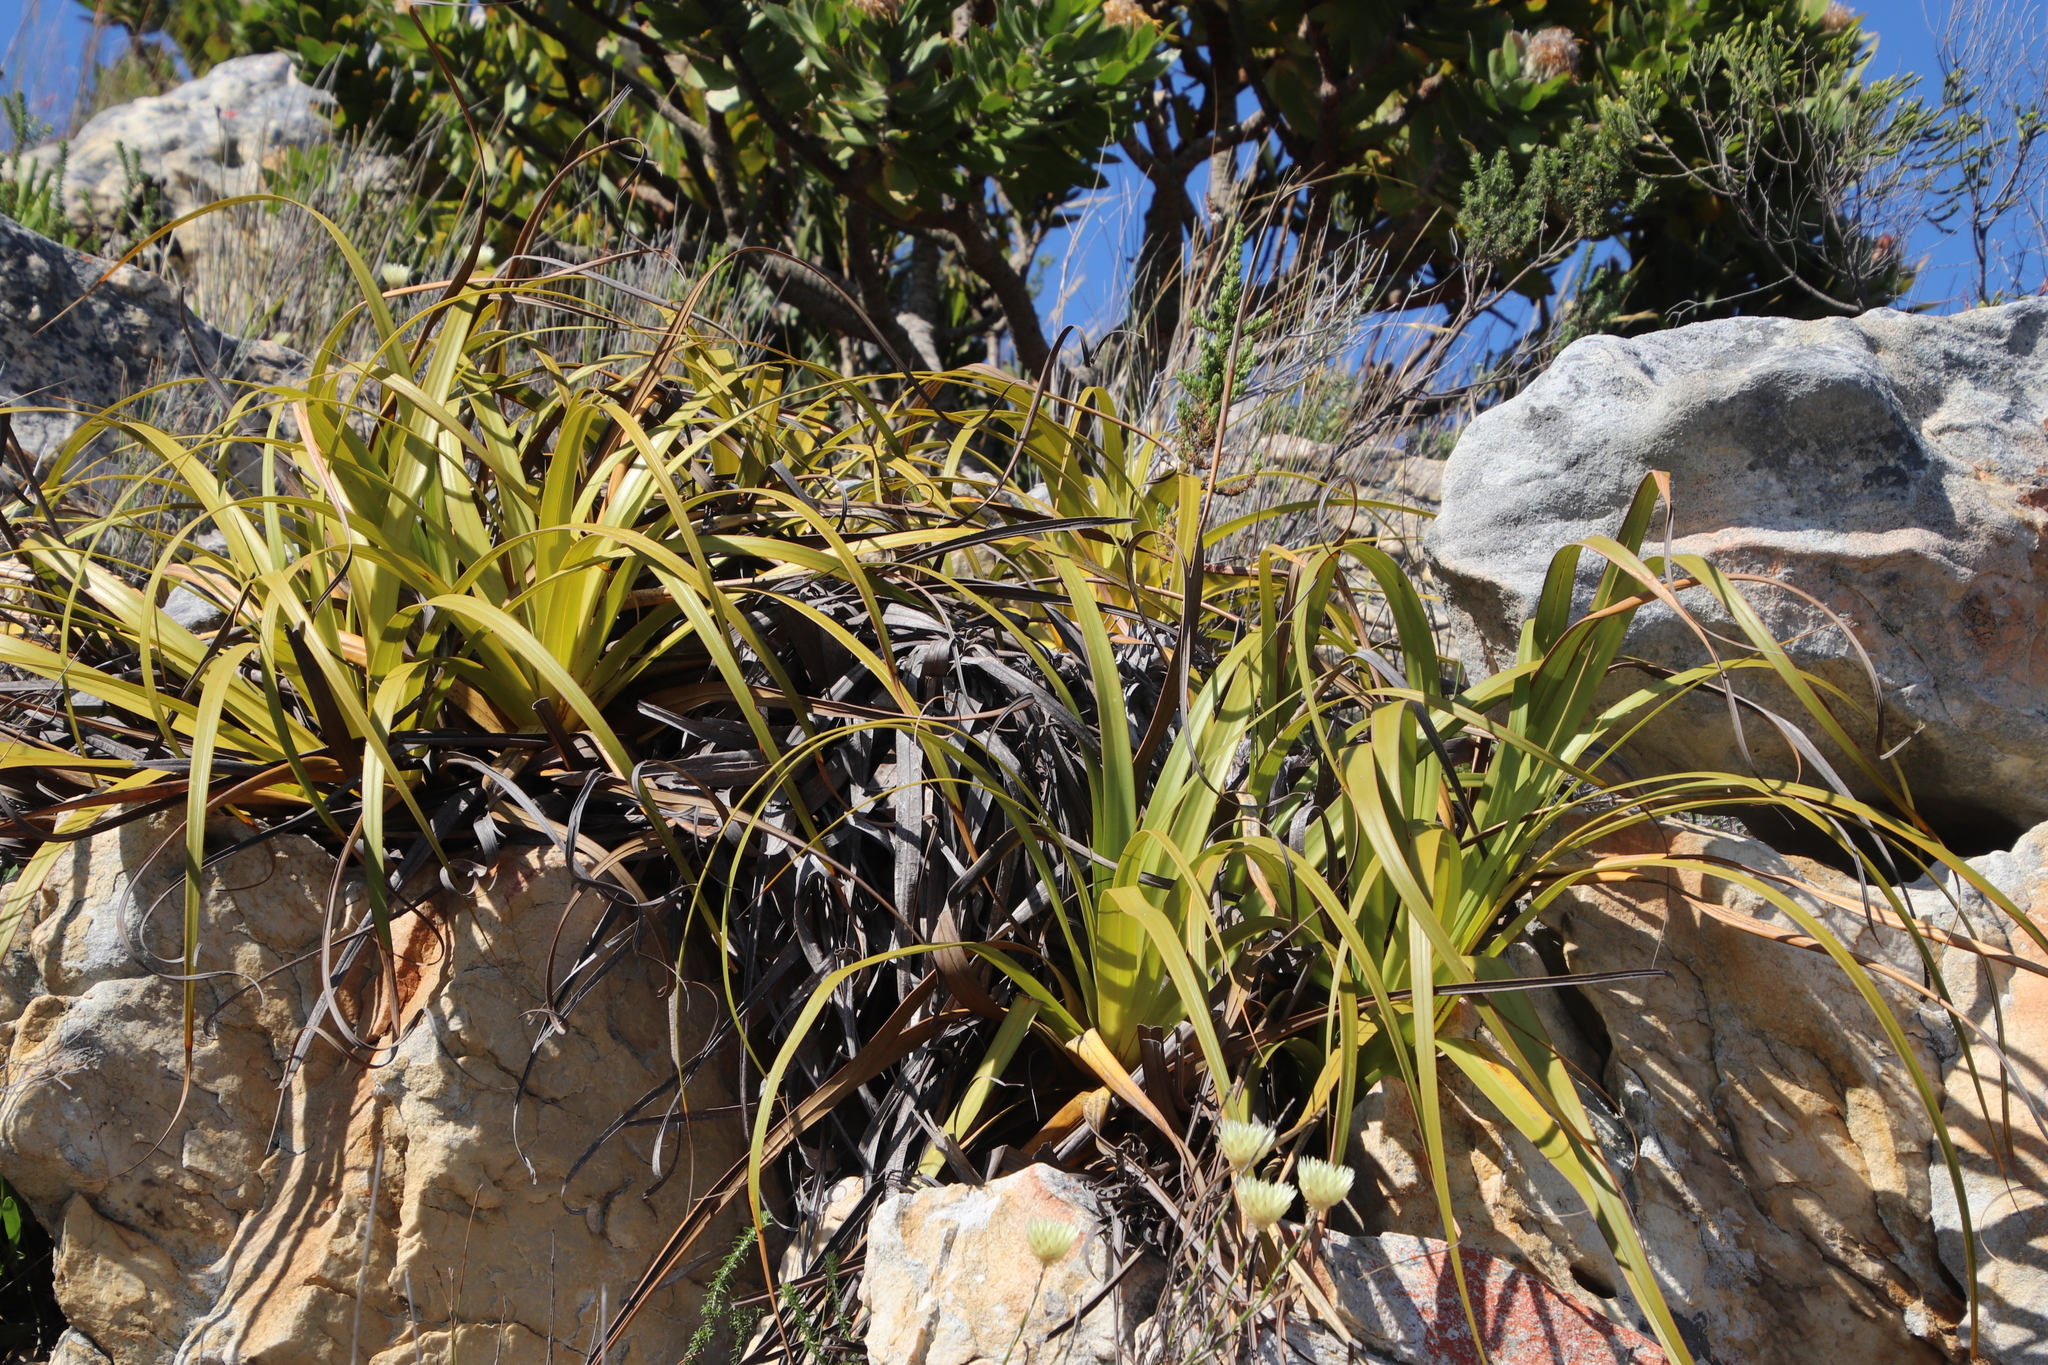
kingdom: Plantae
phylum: Tracheophyta
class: Liliopsida
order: Poales
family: Cyperaceae
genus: Tetraria
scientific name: Tetraria thermalis
